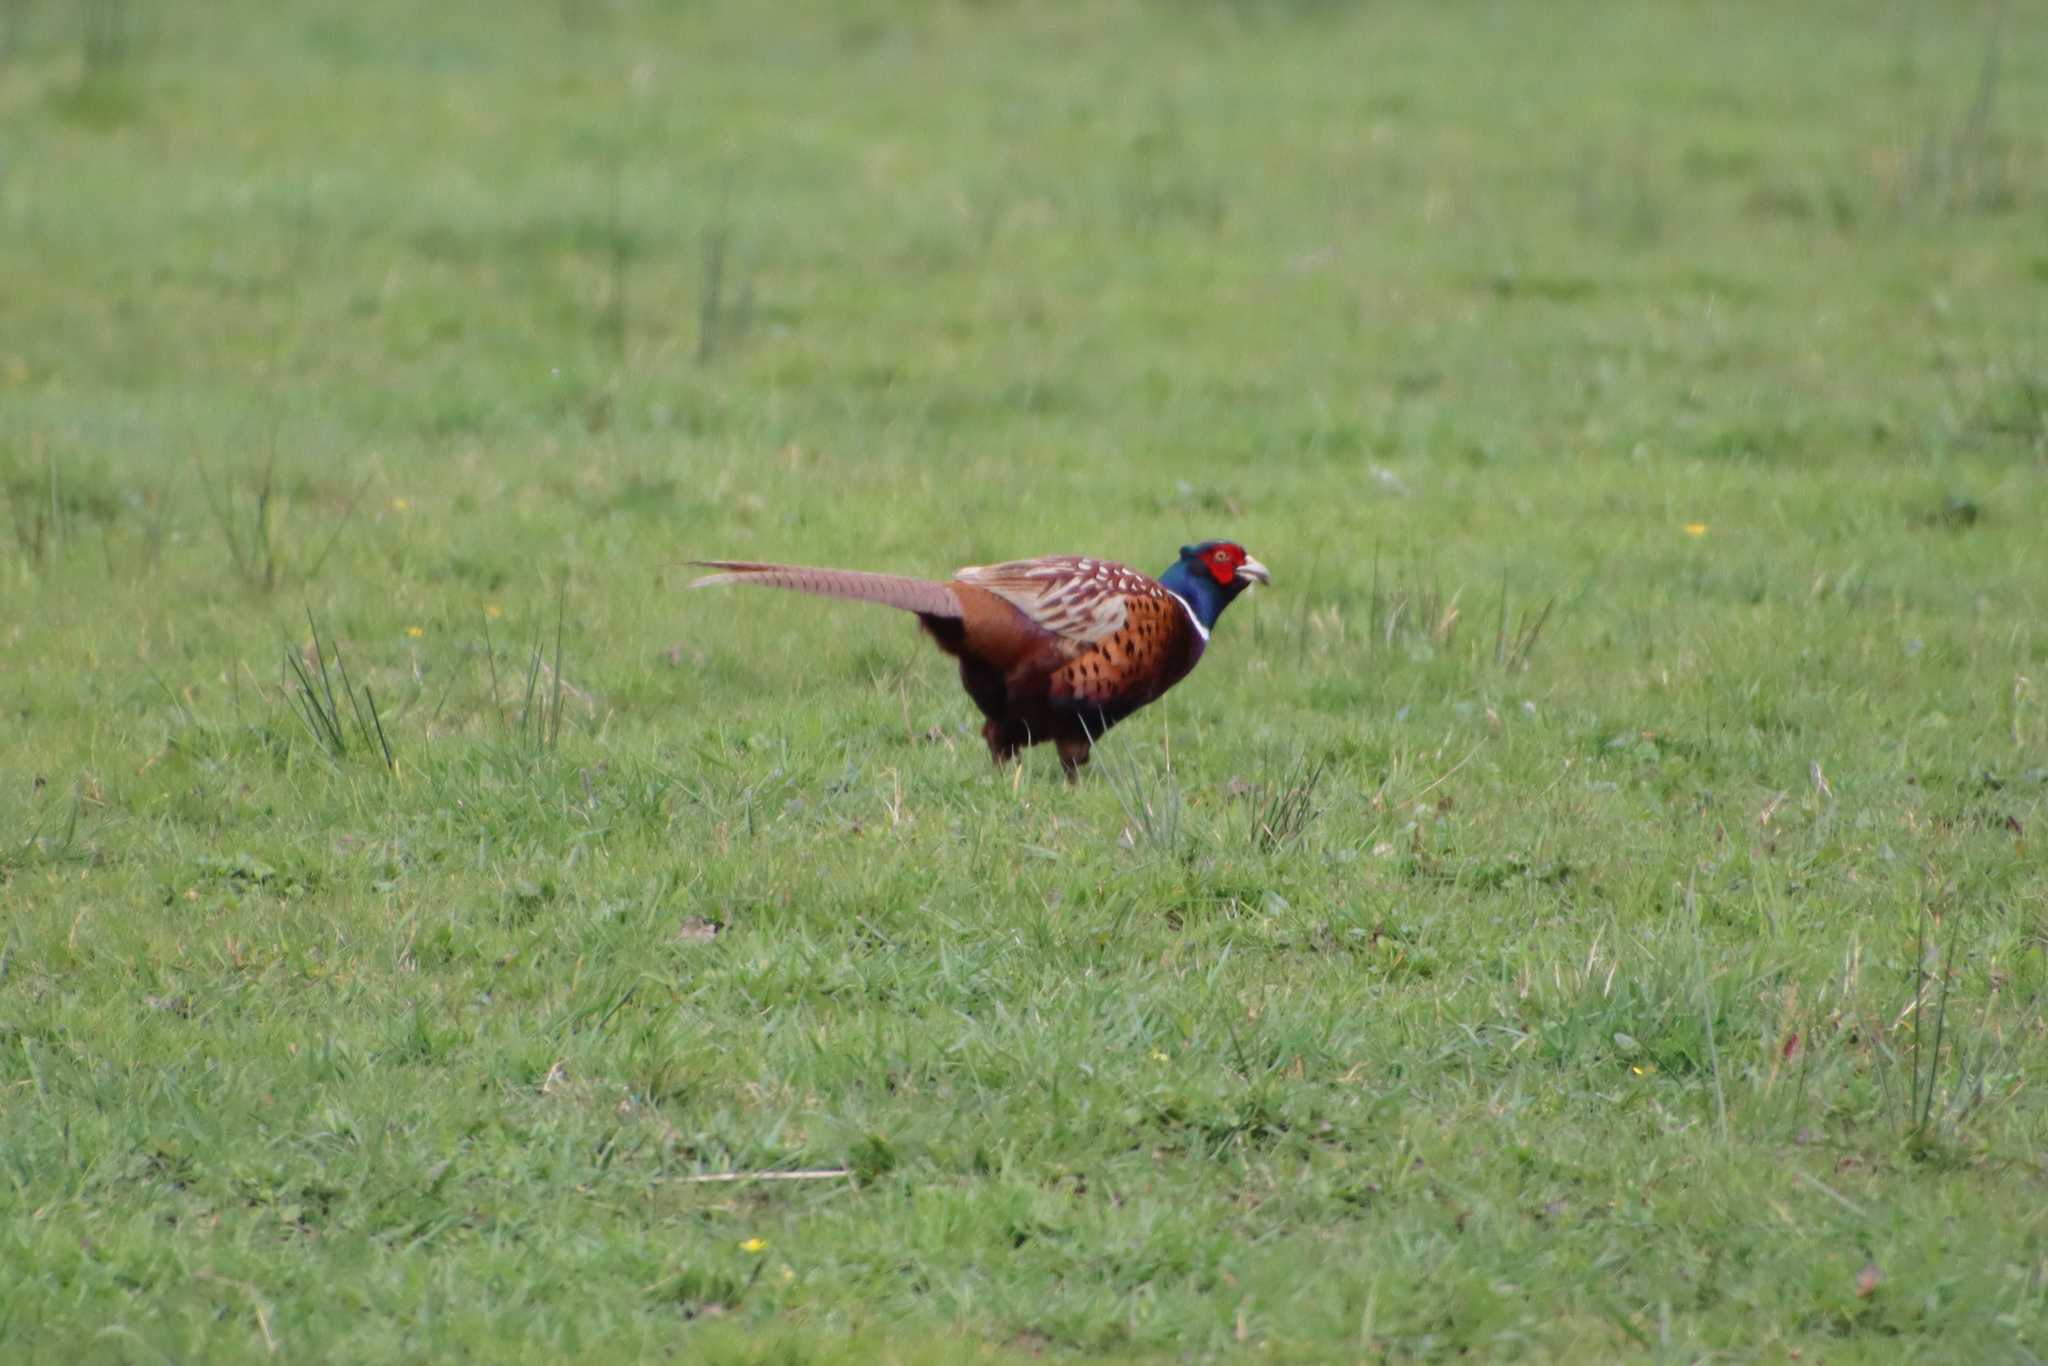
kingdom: Animalia
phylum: Chordata
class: Aves
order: Galliformes
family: Phasianidae
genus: Phasianus
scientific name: Phasianus colchicus
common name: Common pheasant
